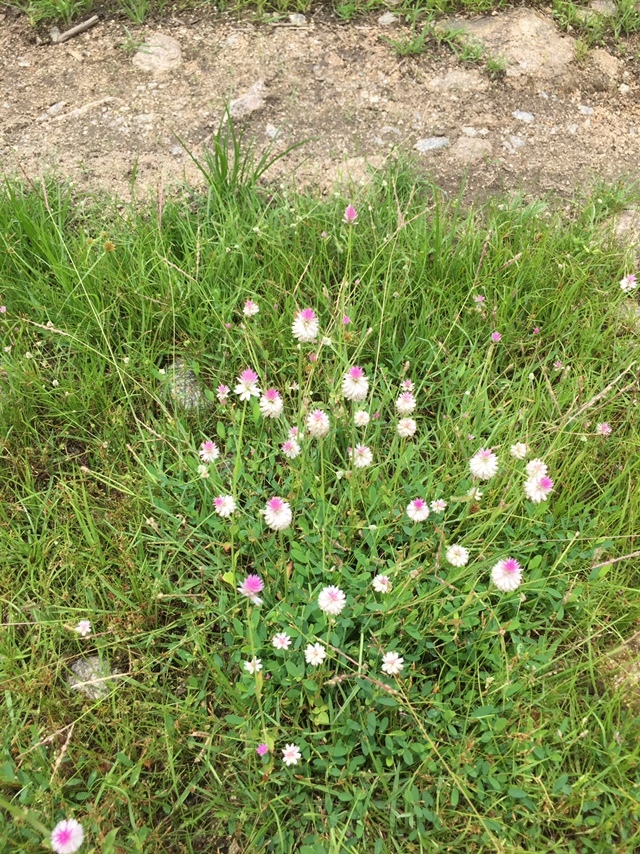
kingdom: Plantae
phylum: Tracheophyta
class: Magnoliopsida
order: Caryophyllales
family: Amaranthaceae
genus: Celosia
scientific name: Celosia argentea
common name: Feather cockscomb
